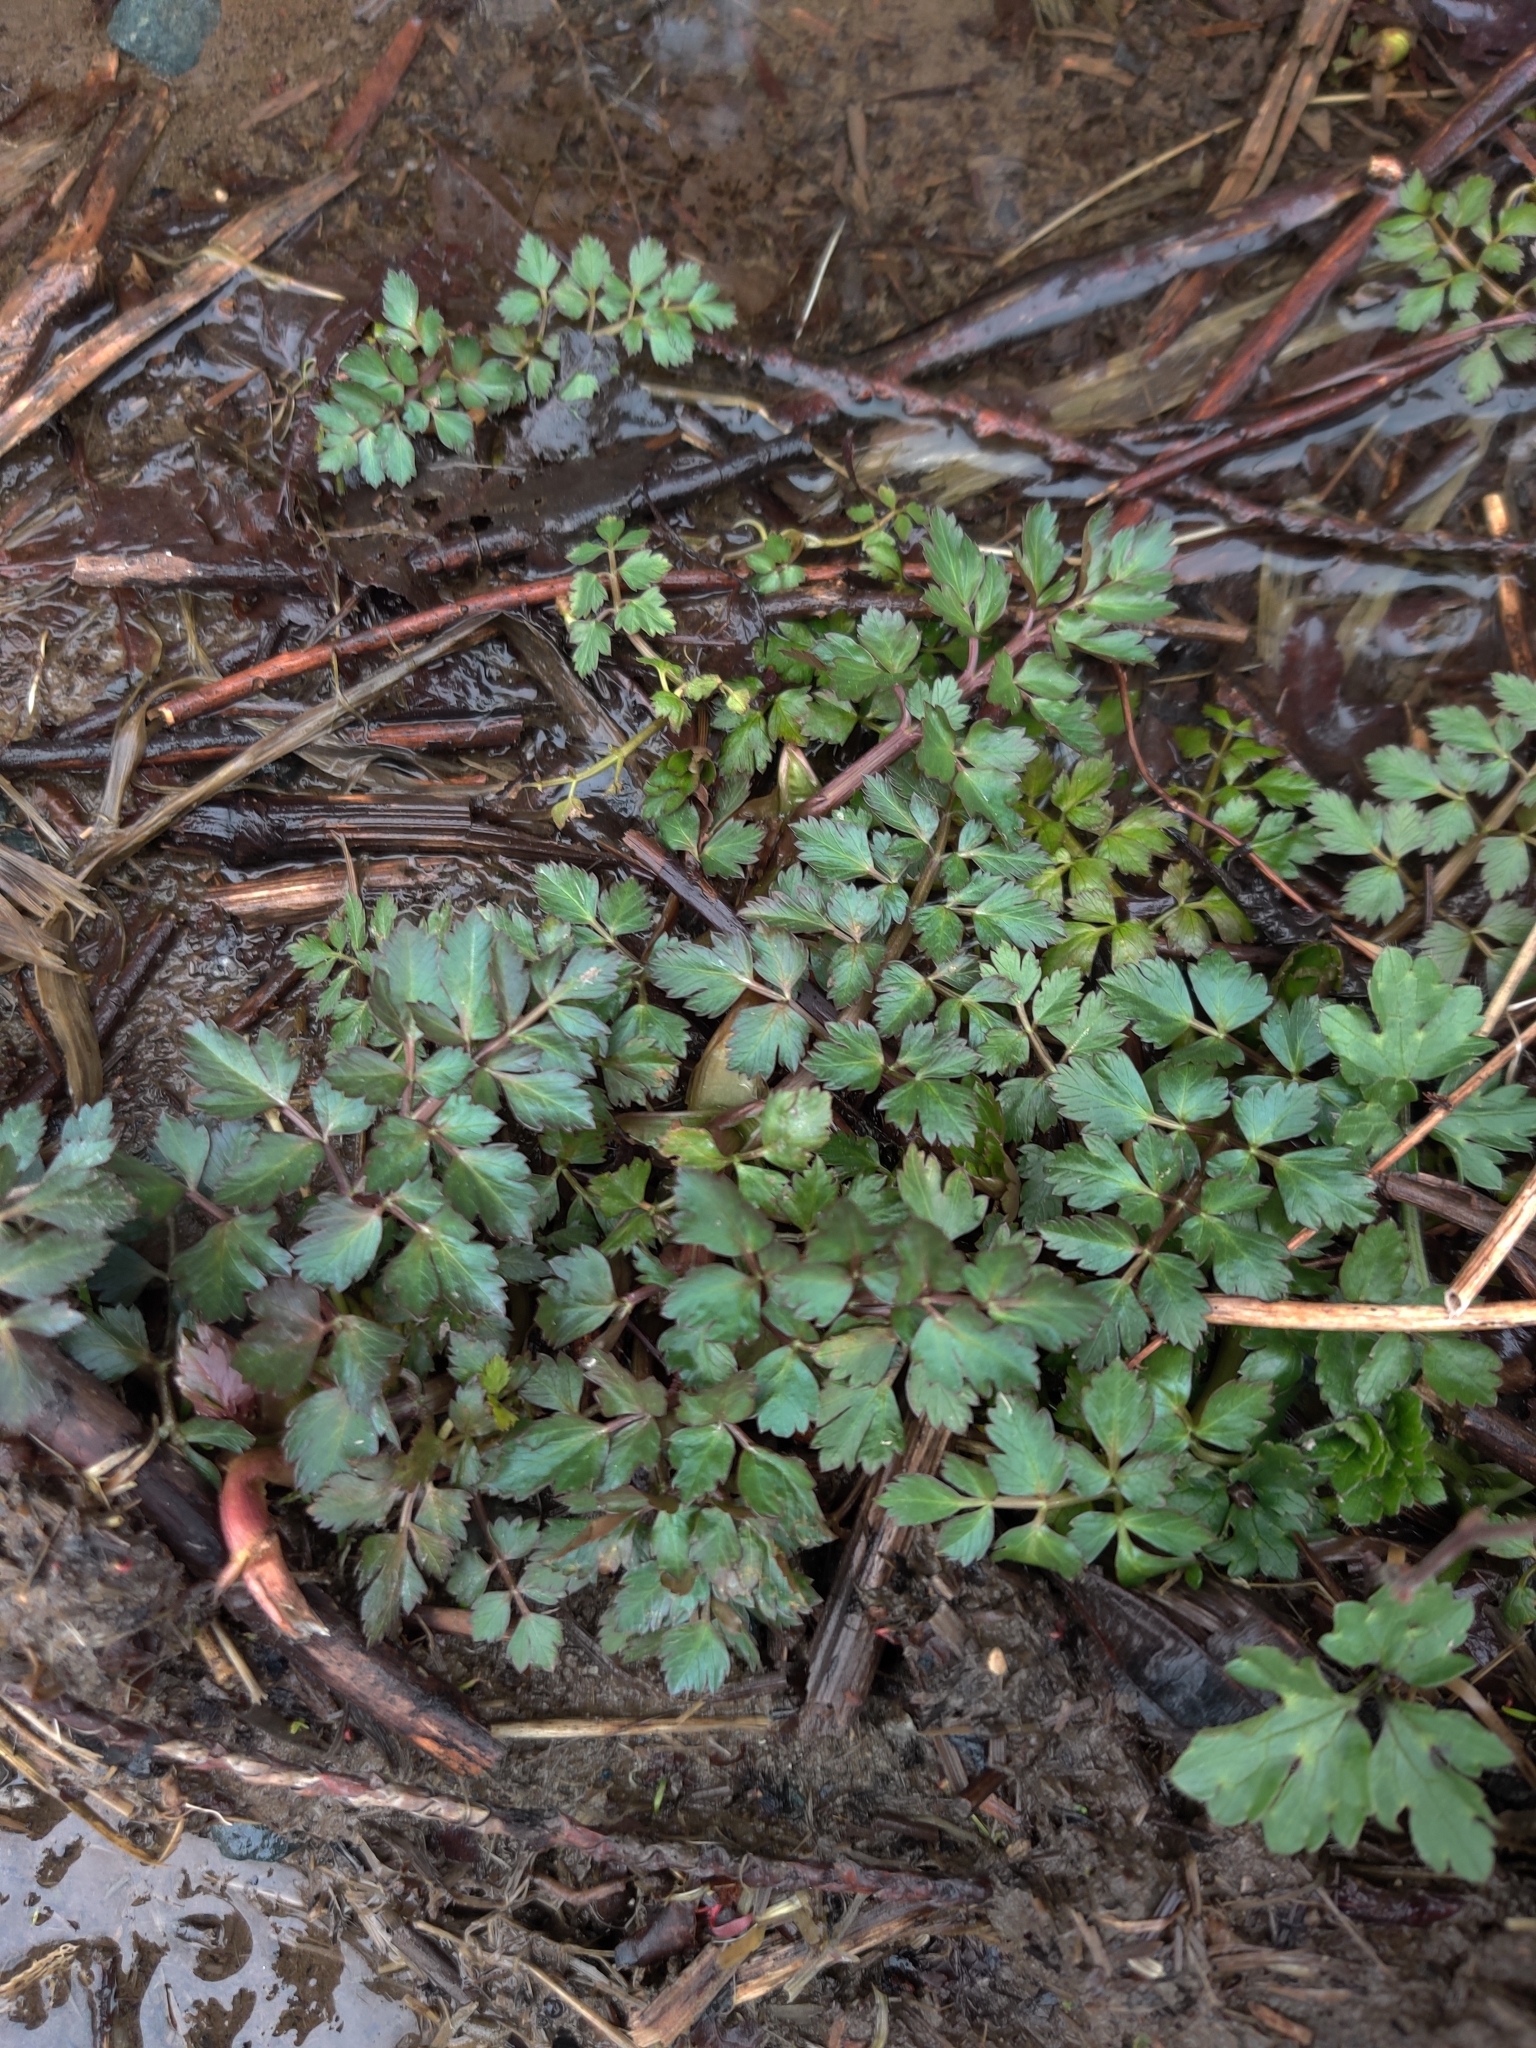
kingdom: Plantae
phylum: Tracheophyta
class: Magnoliopsida
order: Apiales
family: Apiaceae
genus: Oenanthe
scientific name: Oenanthe sarmentosa
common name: American water-parsley
